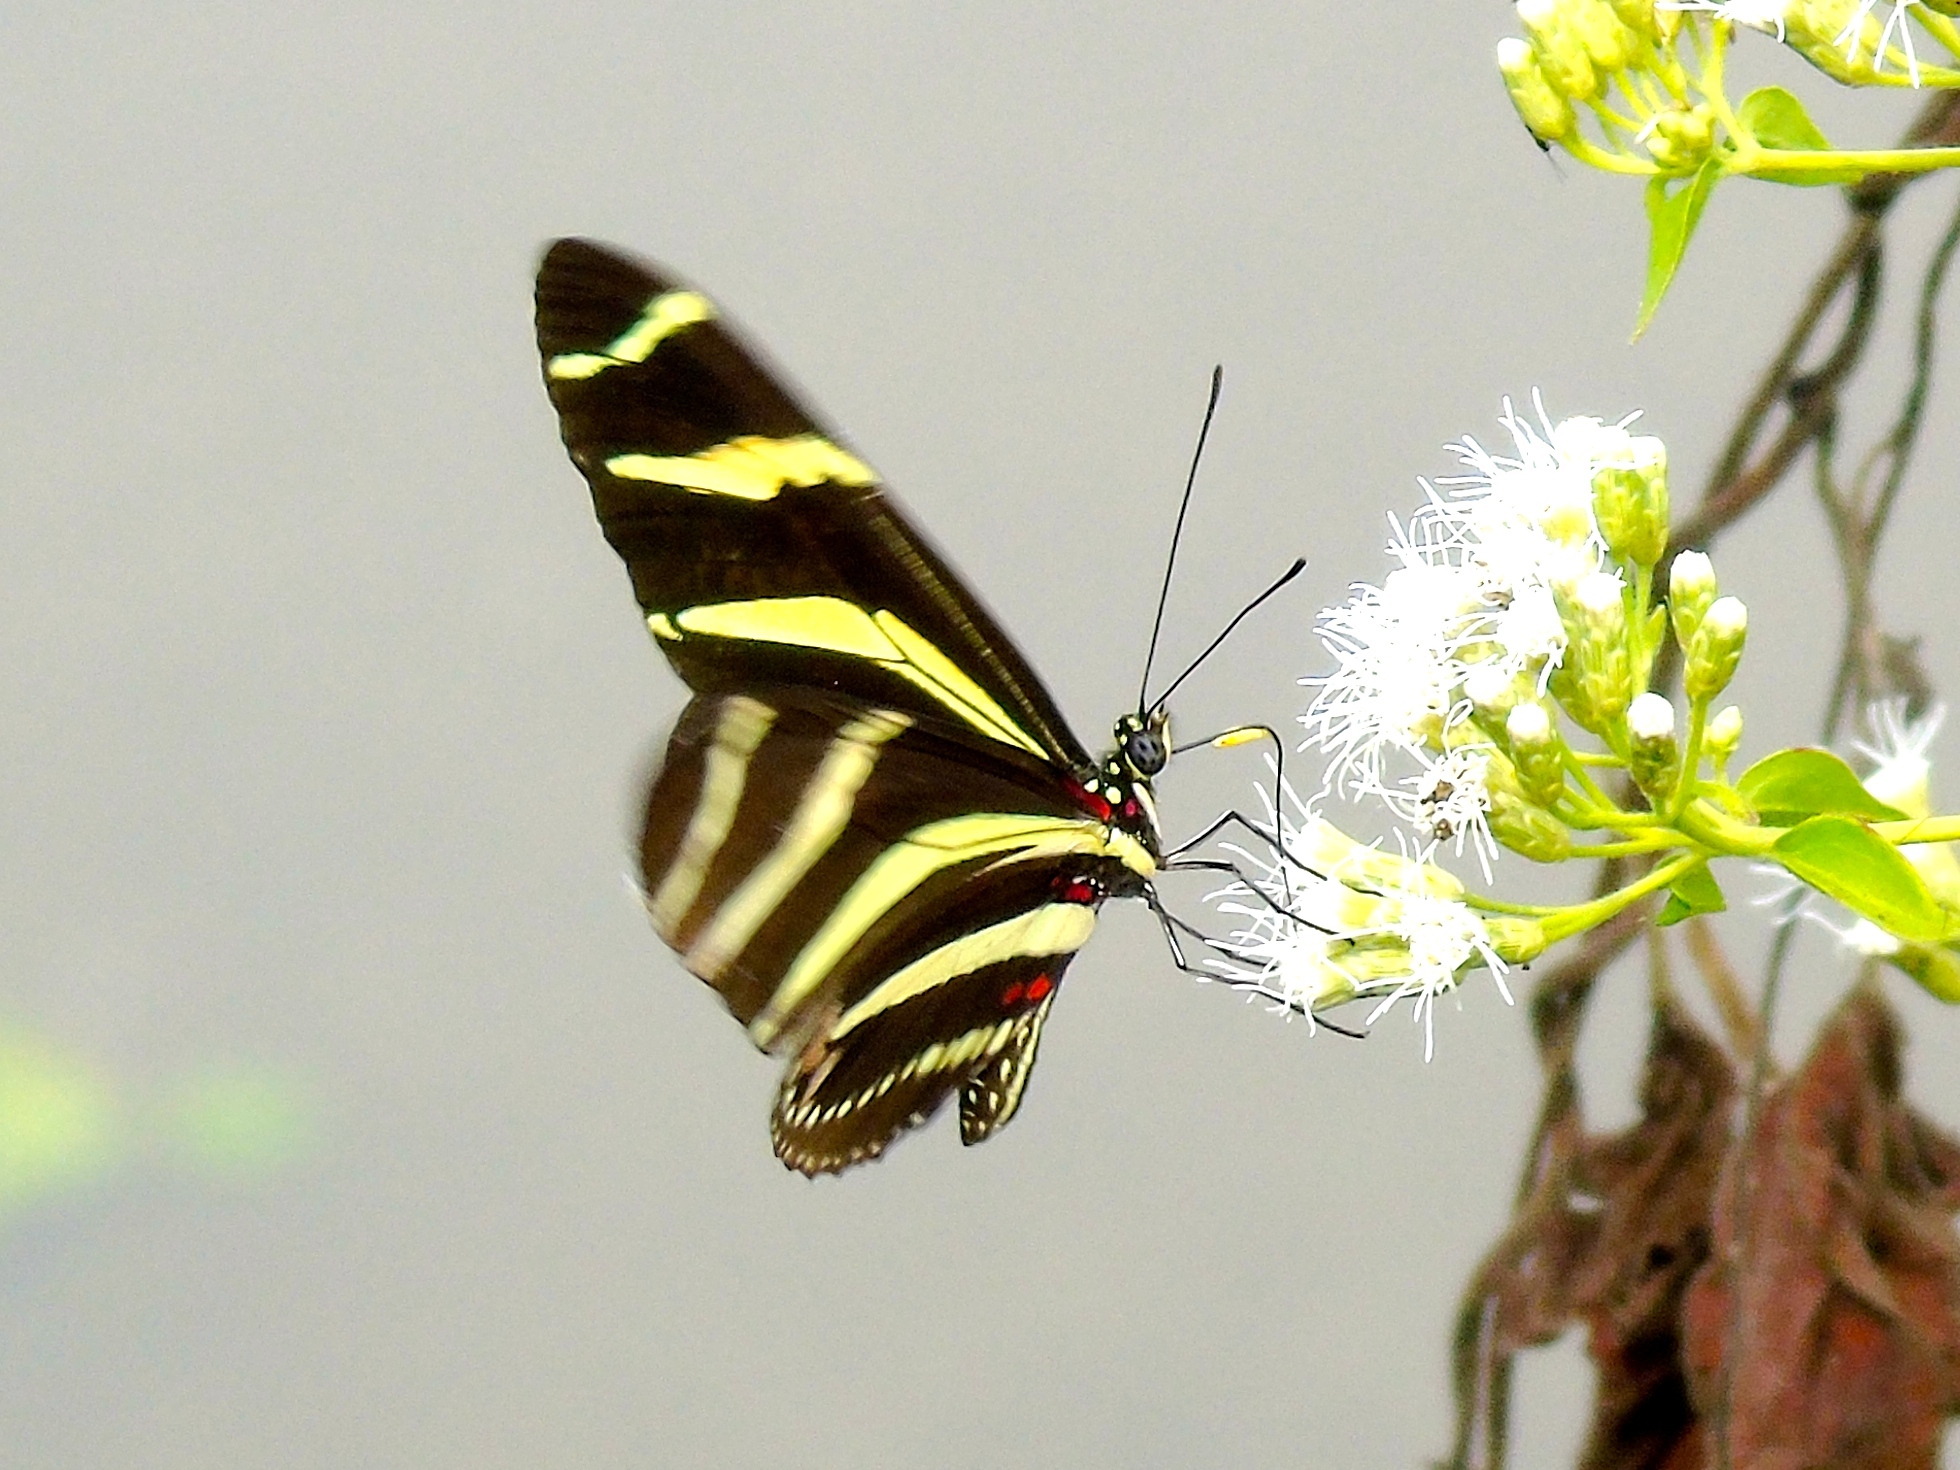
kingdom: Animalia
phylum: Arthropoda
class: Insecta
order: Lepidoptera
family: Nymphalidae
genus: Heliconius
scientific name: Heliconius charithonia
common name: Zebra long wing
